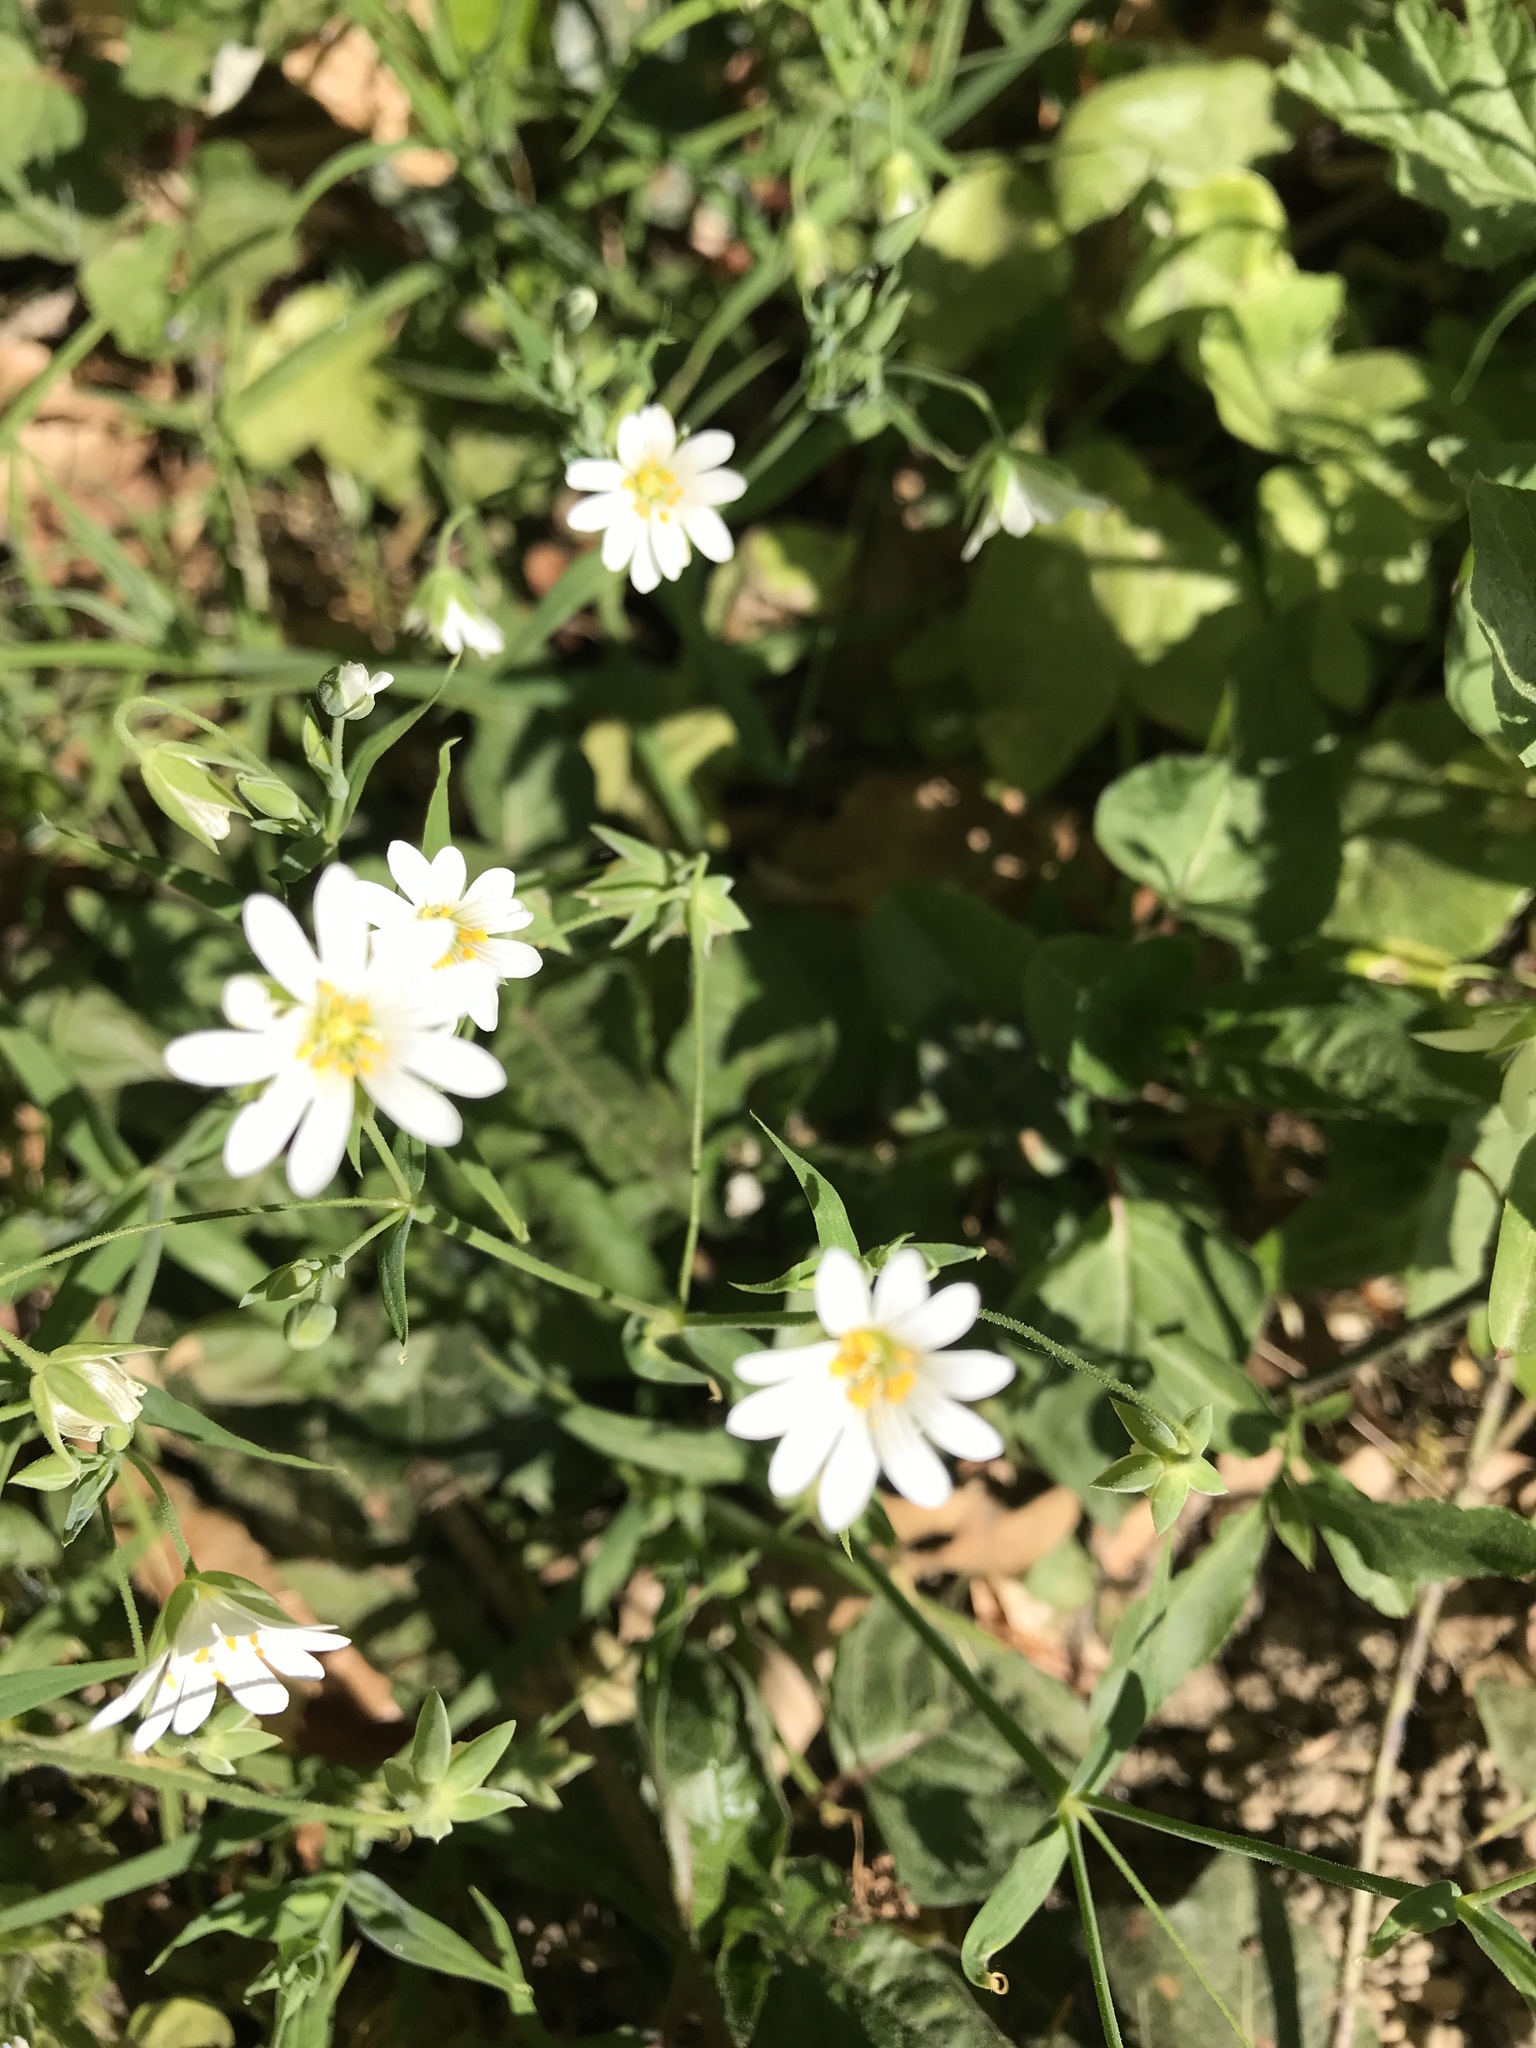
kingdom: Plantae
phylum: Tracheophyta
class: Magnoliopsida
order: Caryophyllales
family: Caryophyllaceae
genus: Rabelera
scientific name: Rabelera holostea
